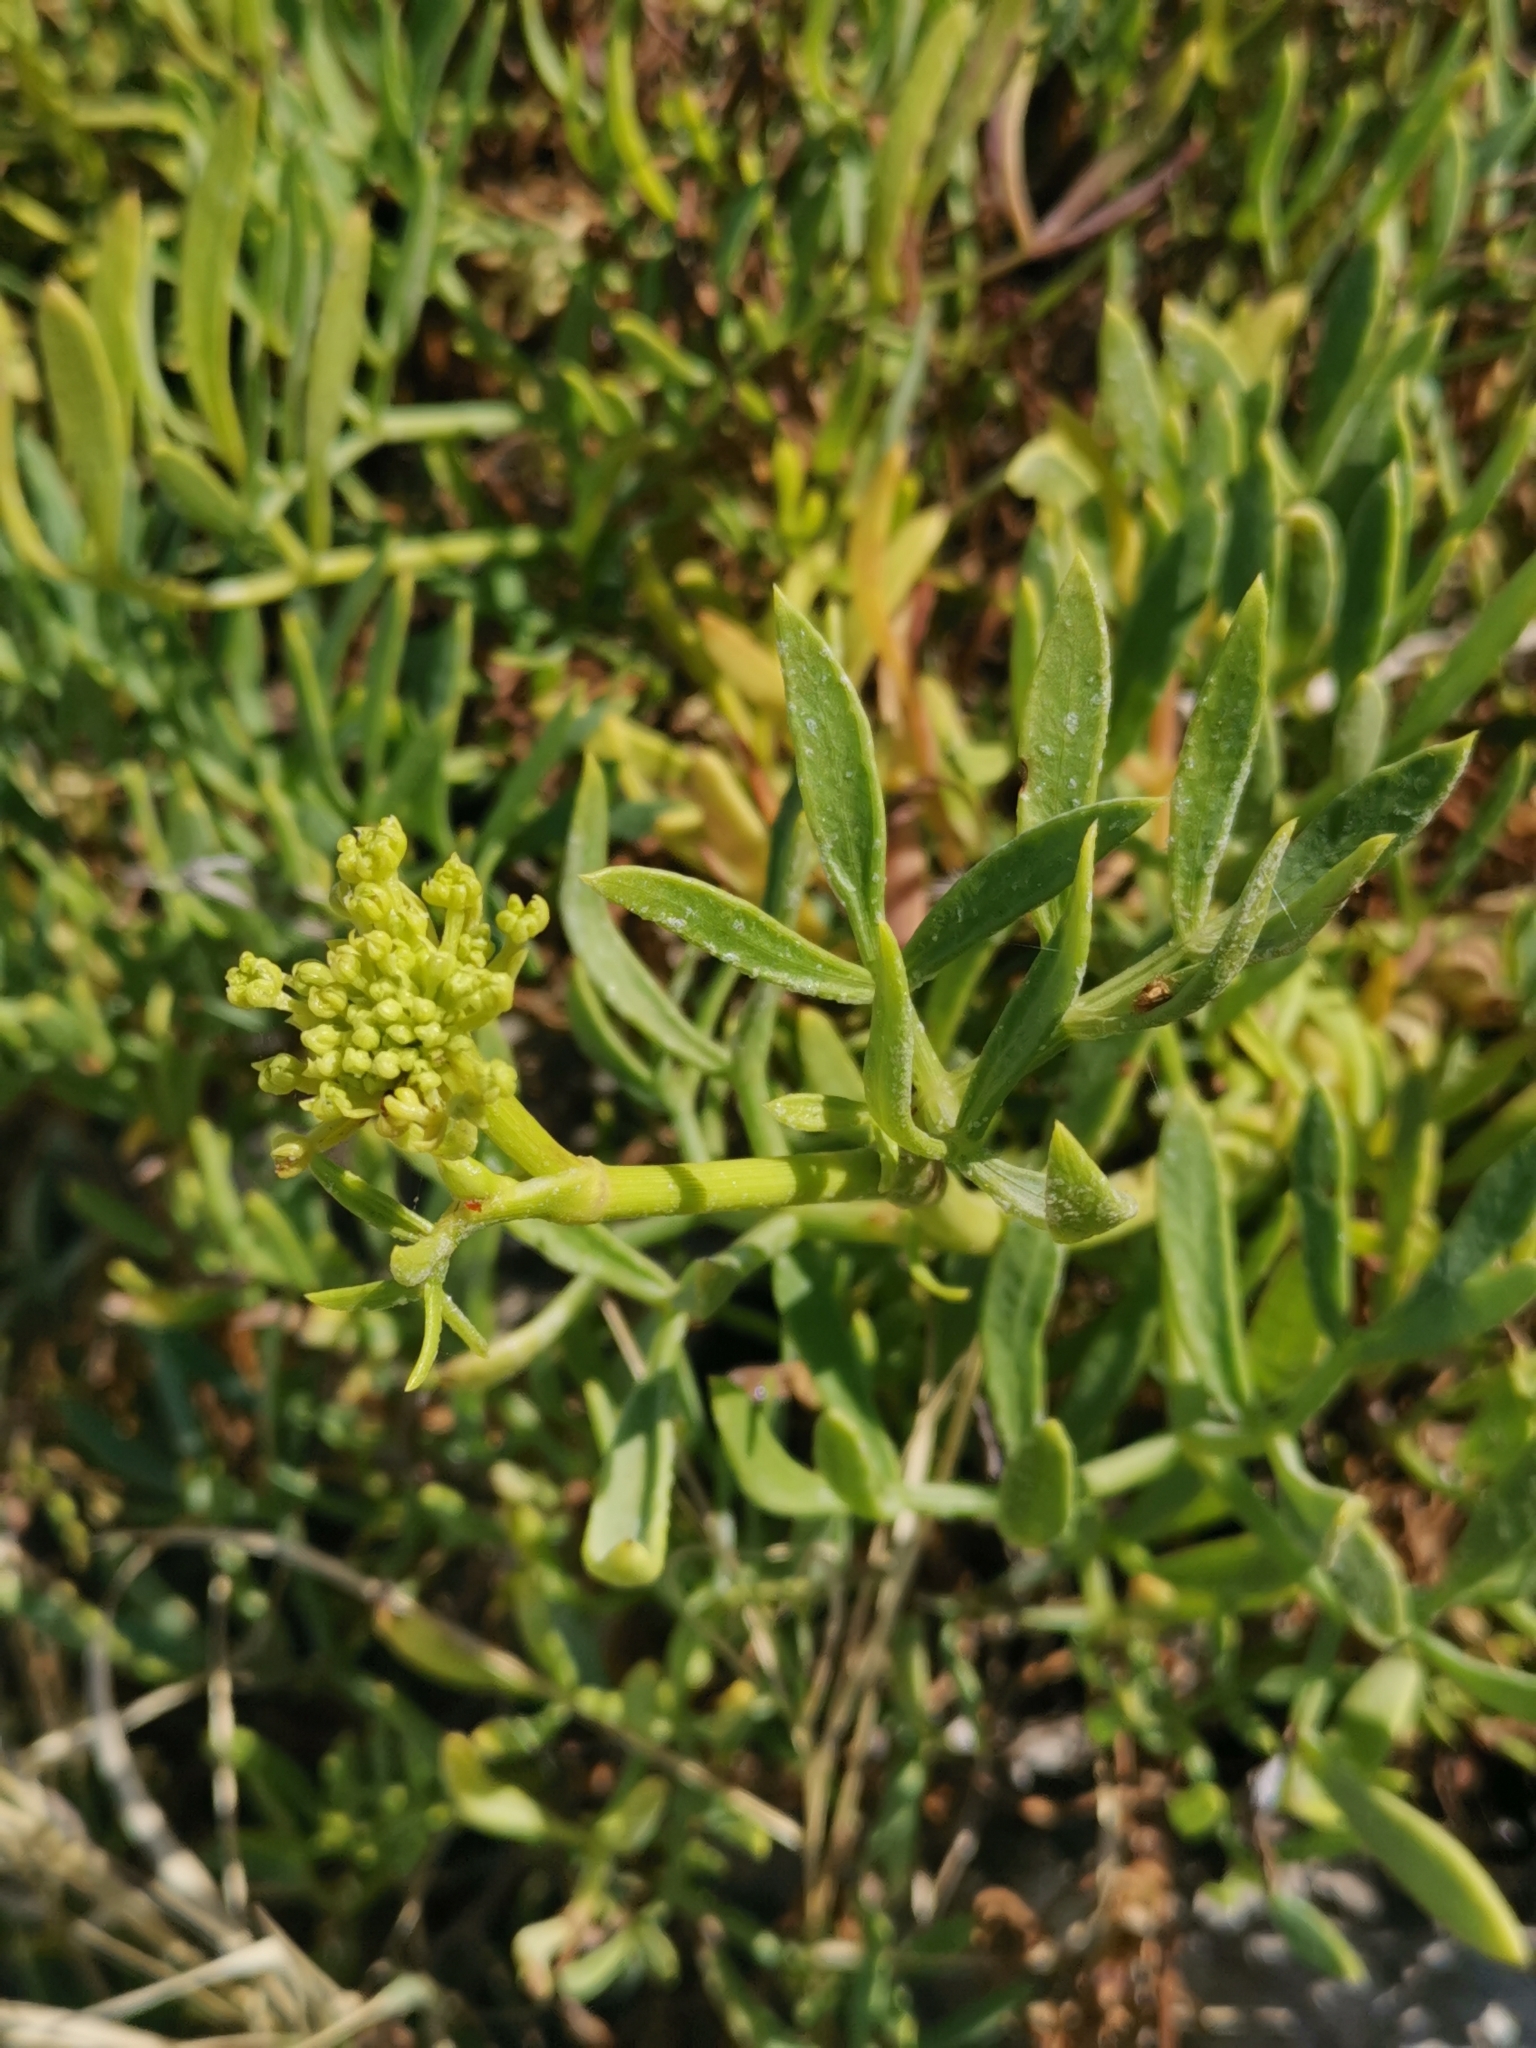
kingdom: Plantae
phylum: Tracheophyta
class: Magnoliopsida
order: Apiales
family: Apiaceae
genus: Crithmum
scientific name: Crithmum maritimum
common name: Rock samphire
